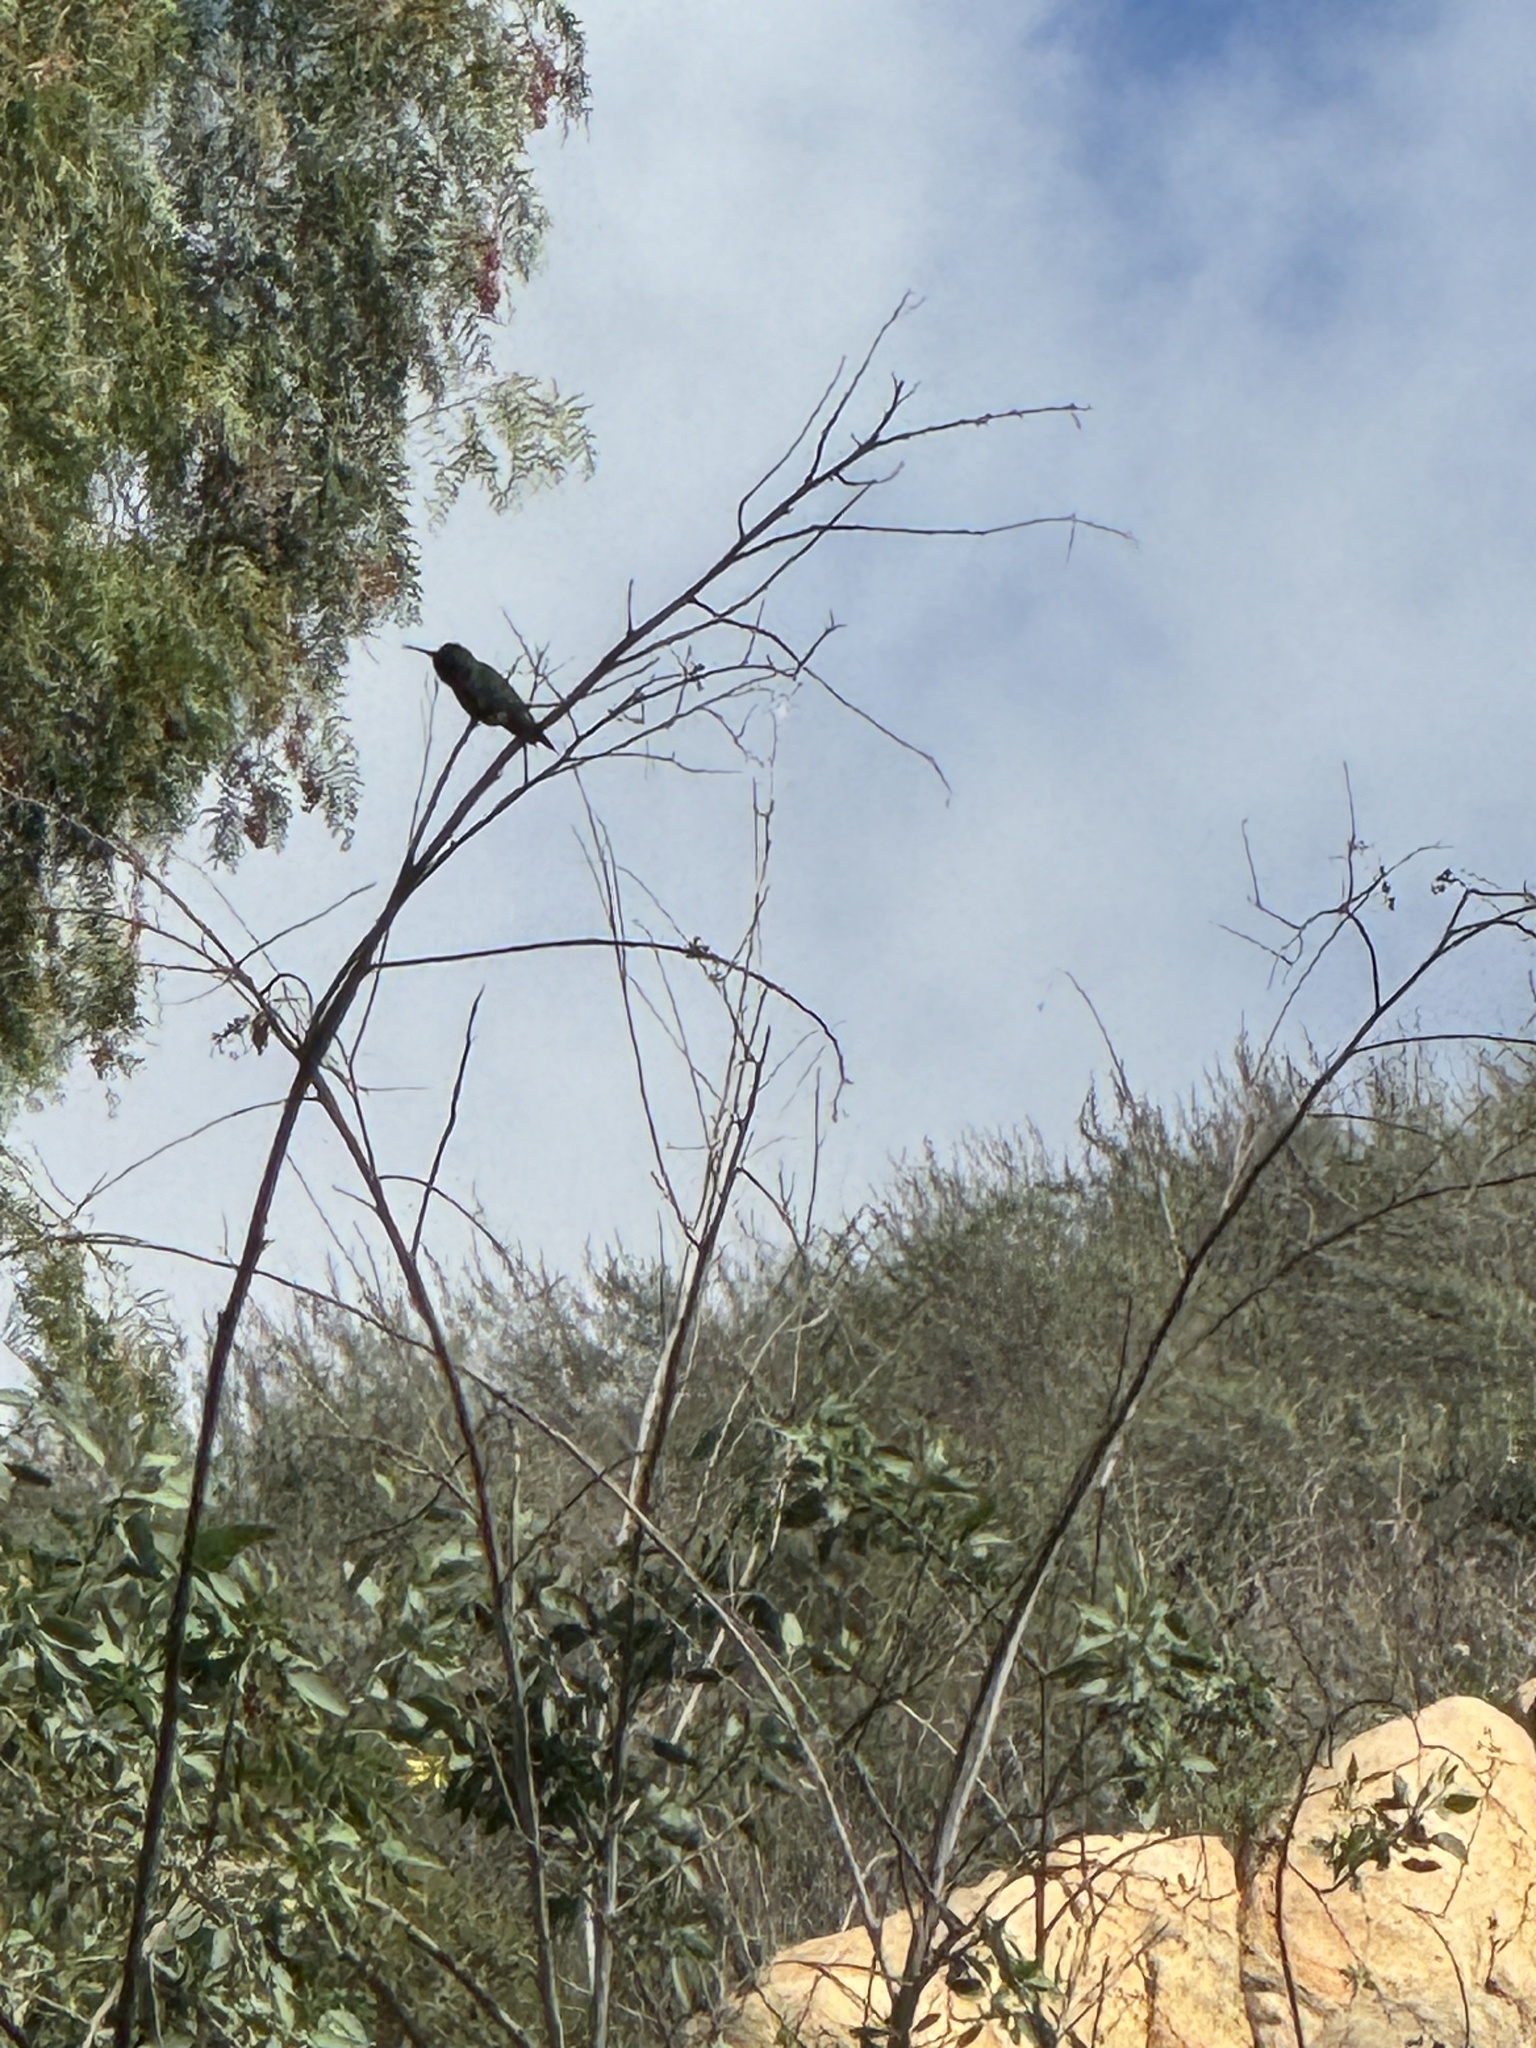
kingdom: Animalia
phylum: Chordata
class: Aves
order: Apodiformes
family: Trochilidae
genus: Calypte
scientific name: Calypte anna
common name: Anna's hummingbird
